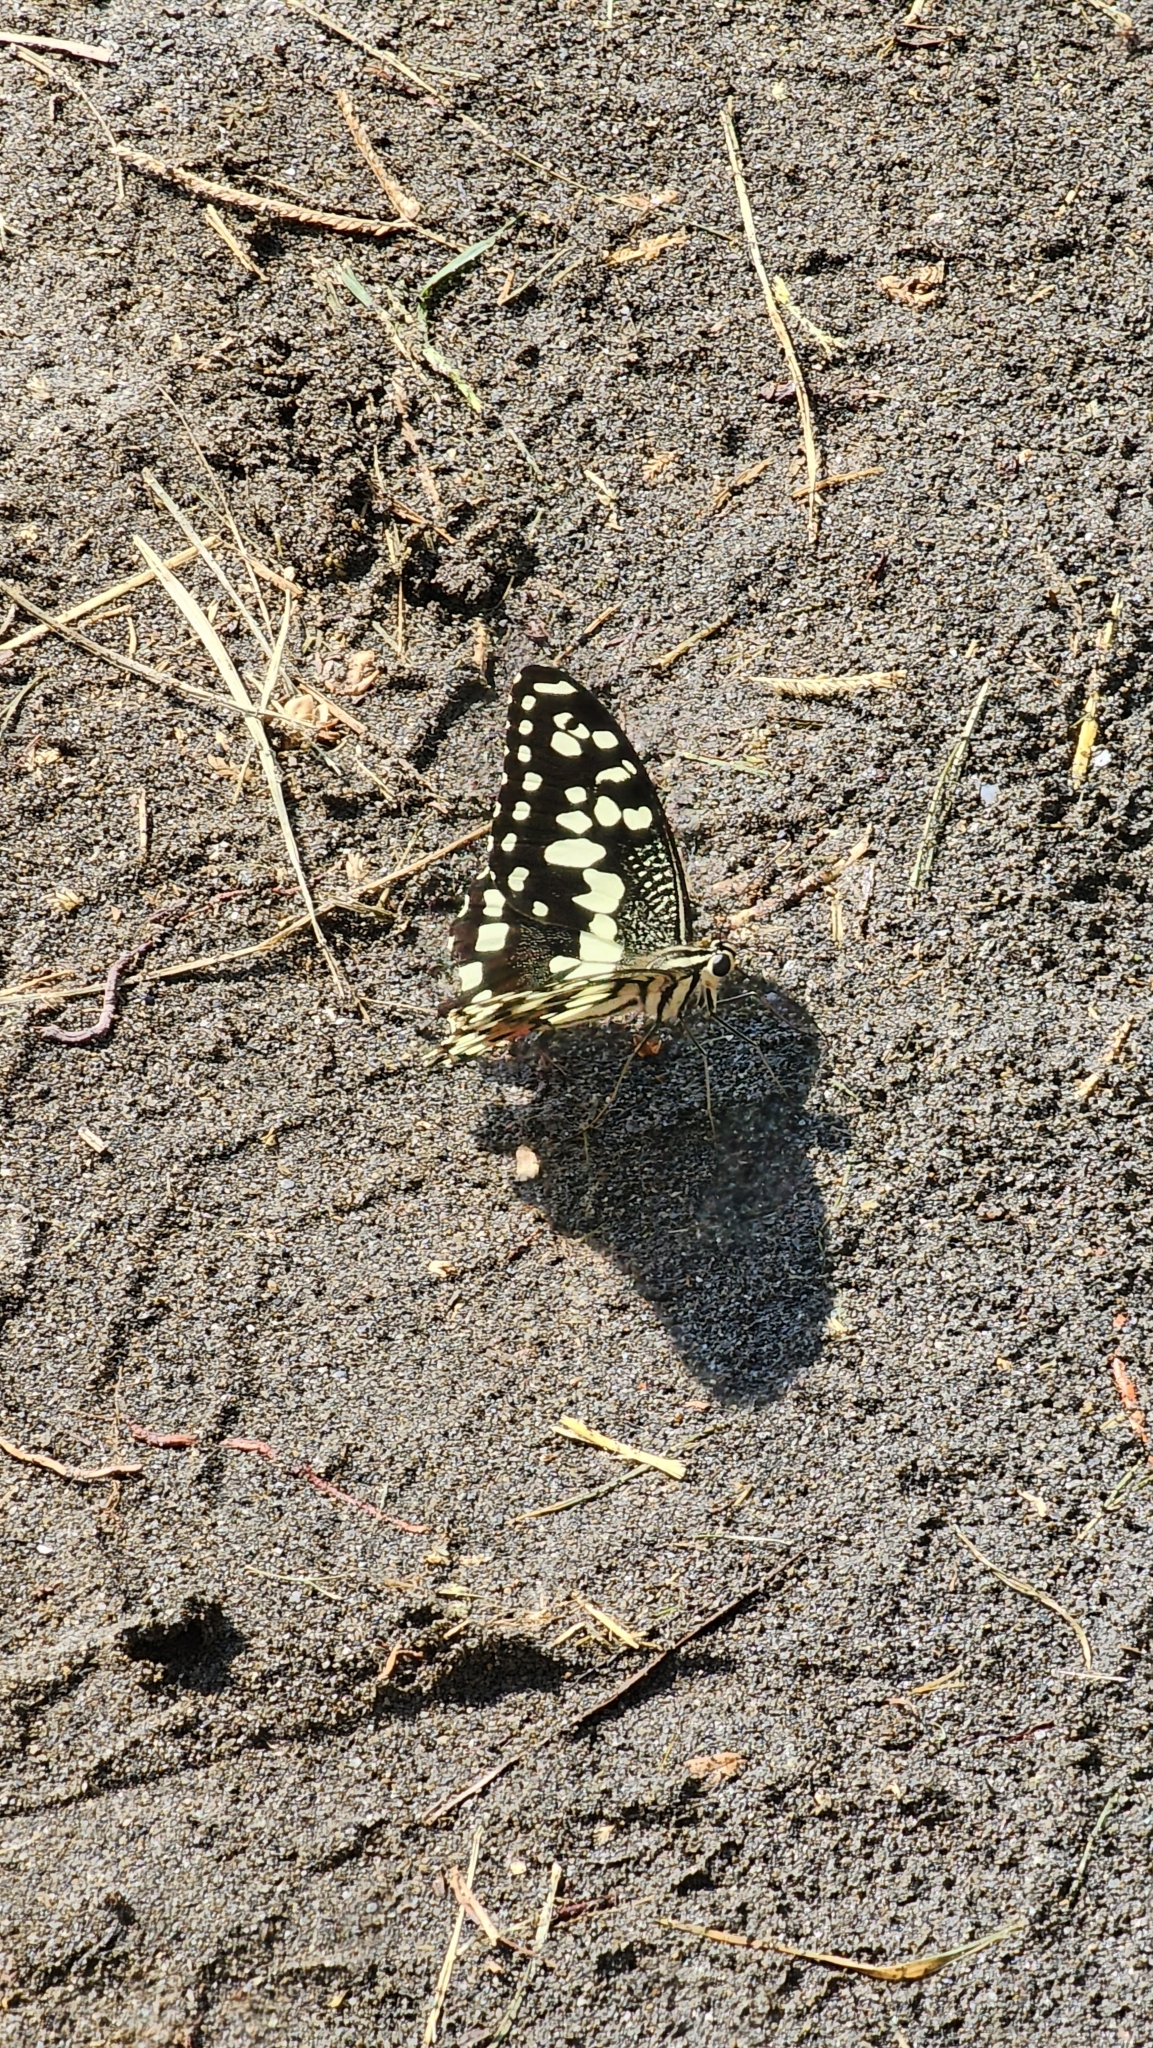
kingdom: Animalia
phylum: Arthropoda
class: Insecta
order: Lepidoptera
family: Papilionidae
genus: Papilio
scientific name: Papilio demoleus
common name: Lime butterfly
